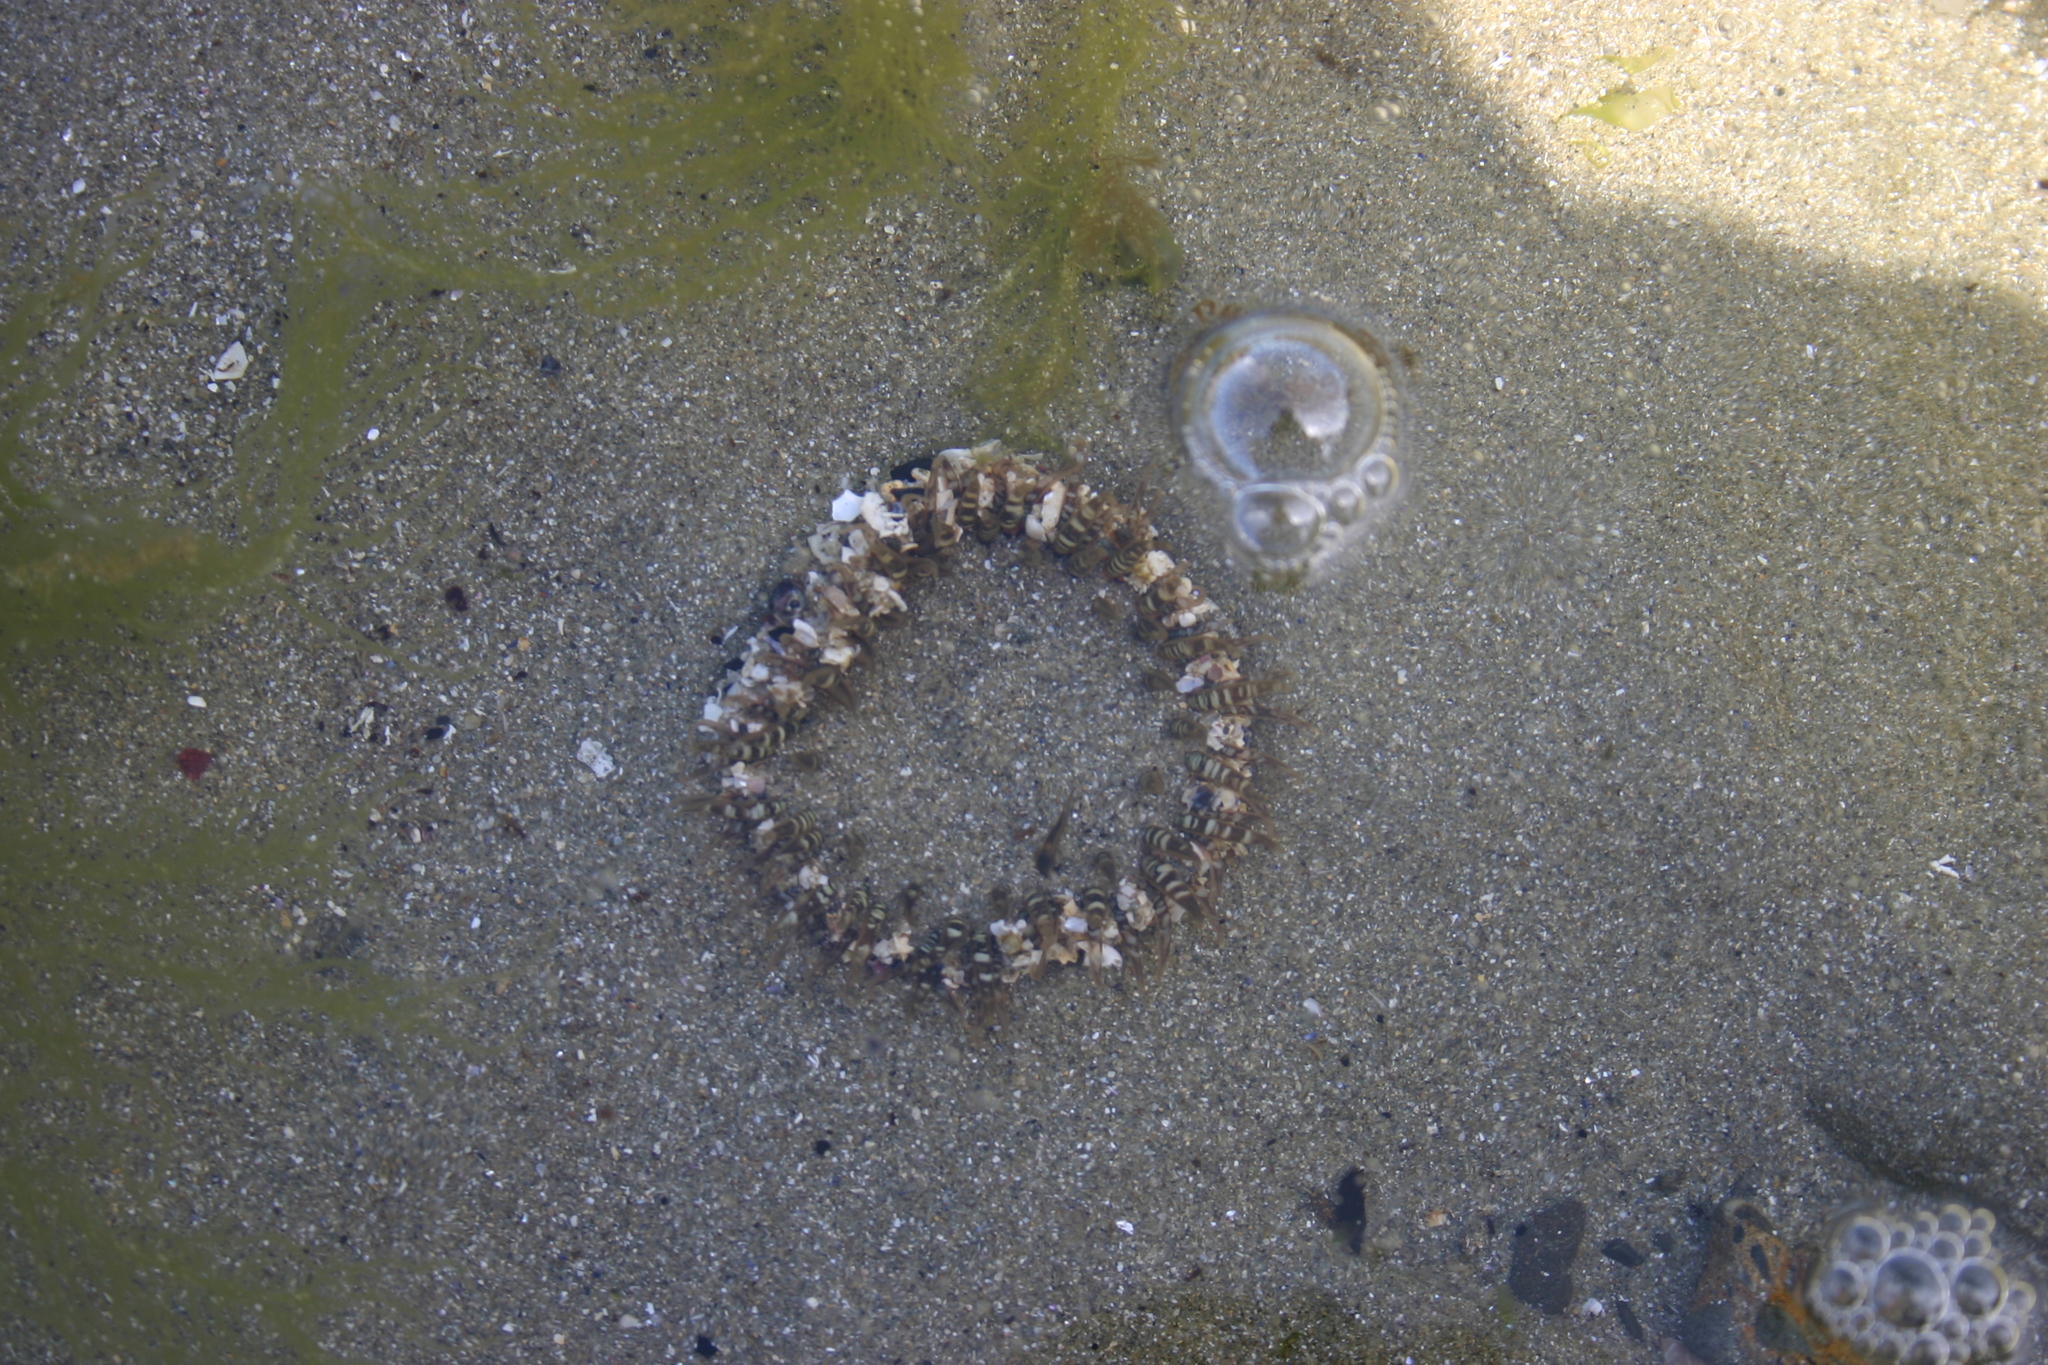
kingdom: Animalia
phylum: Cnidaria
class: Anthozoa
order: Actiniaria
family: Actiniidae
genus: Oulactis
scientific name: Oulactis muscosa
